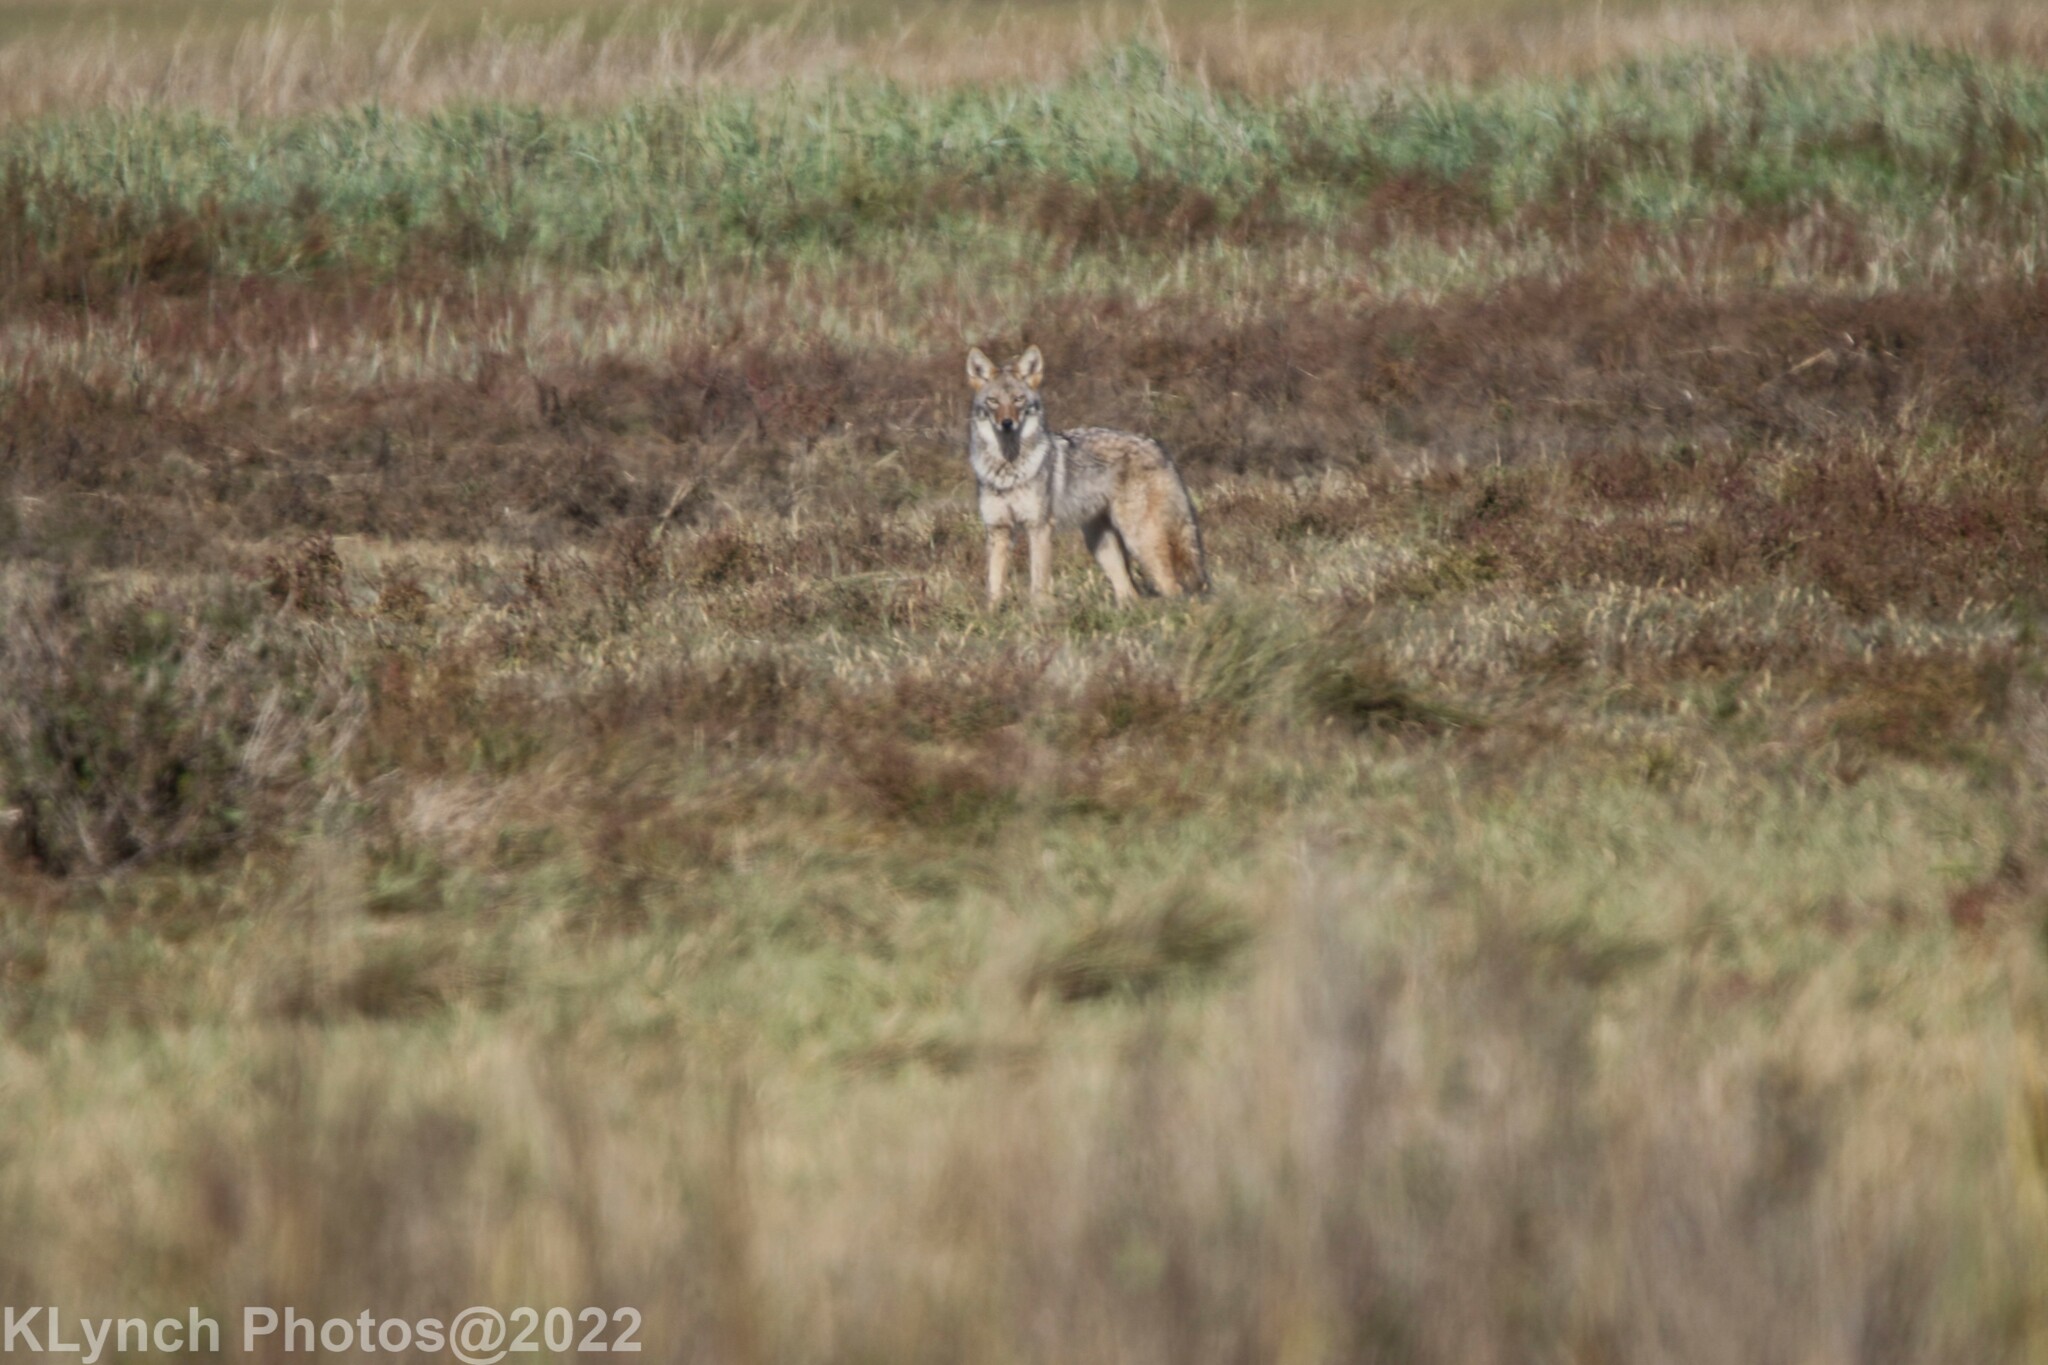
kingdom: Animalia
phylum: Chordata
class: Mammalia
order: Carnivora
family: Canidae
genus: Canis
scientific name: Canis latrans
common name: Coyote
